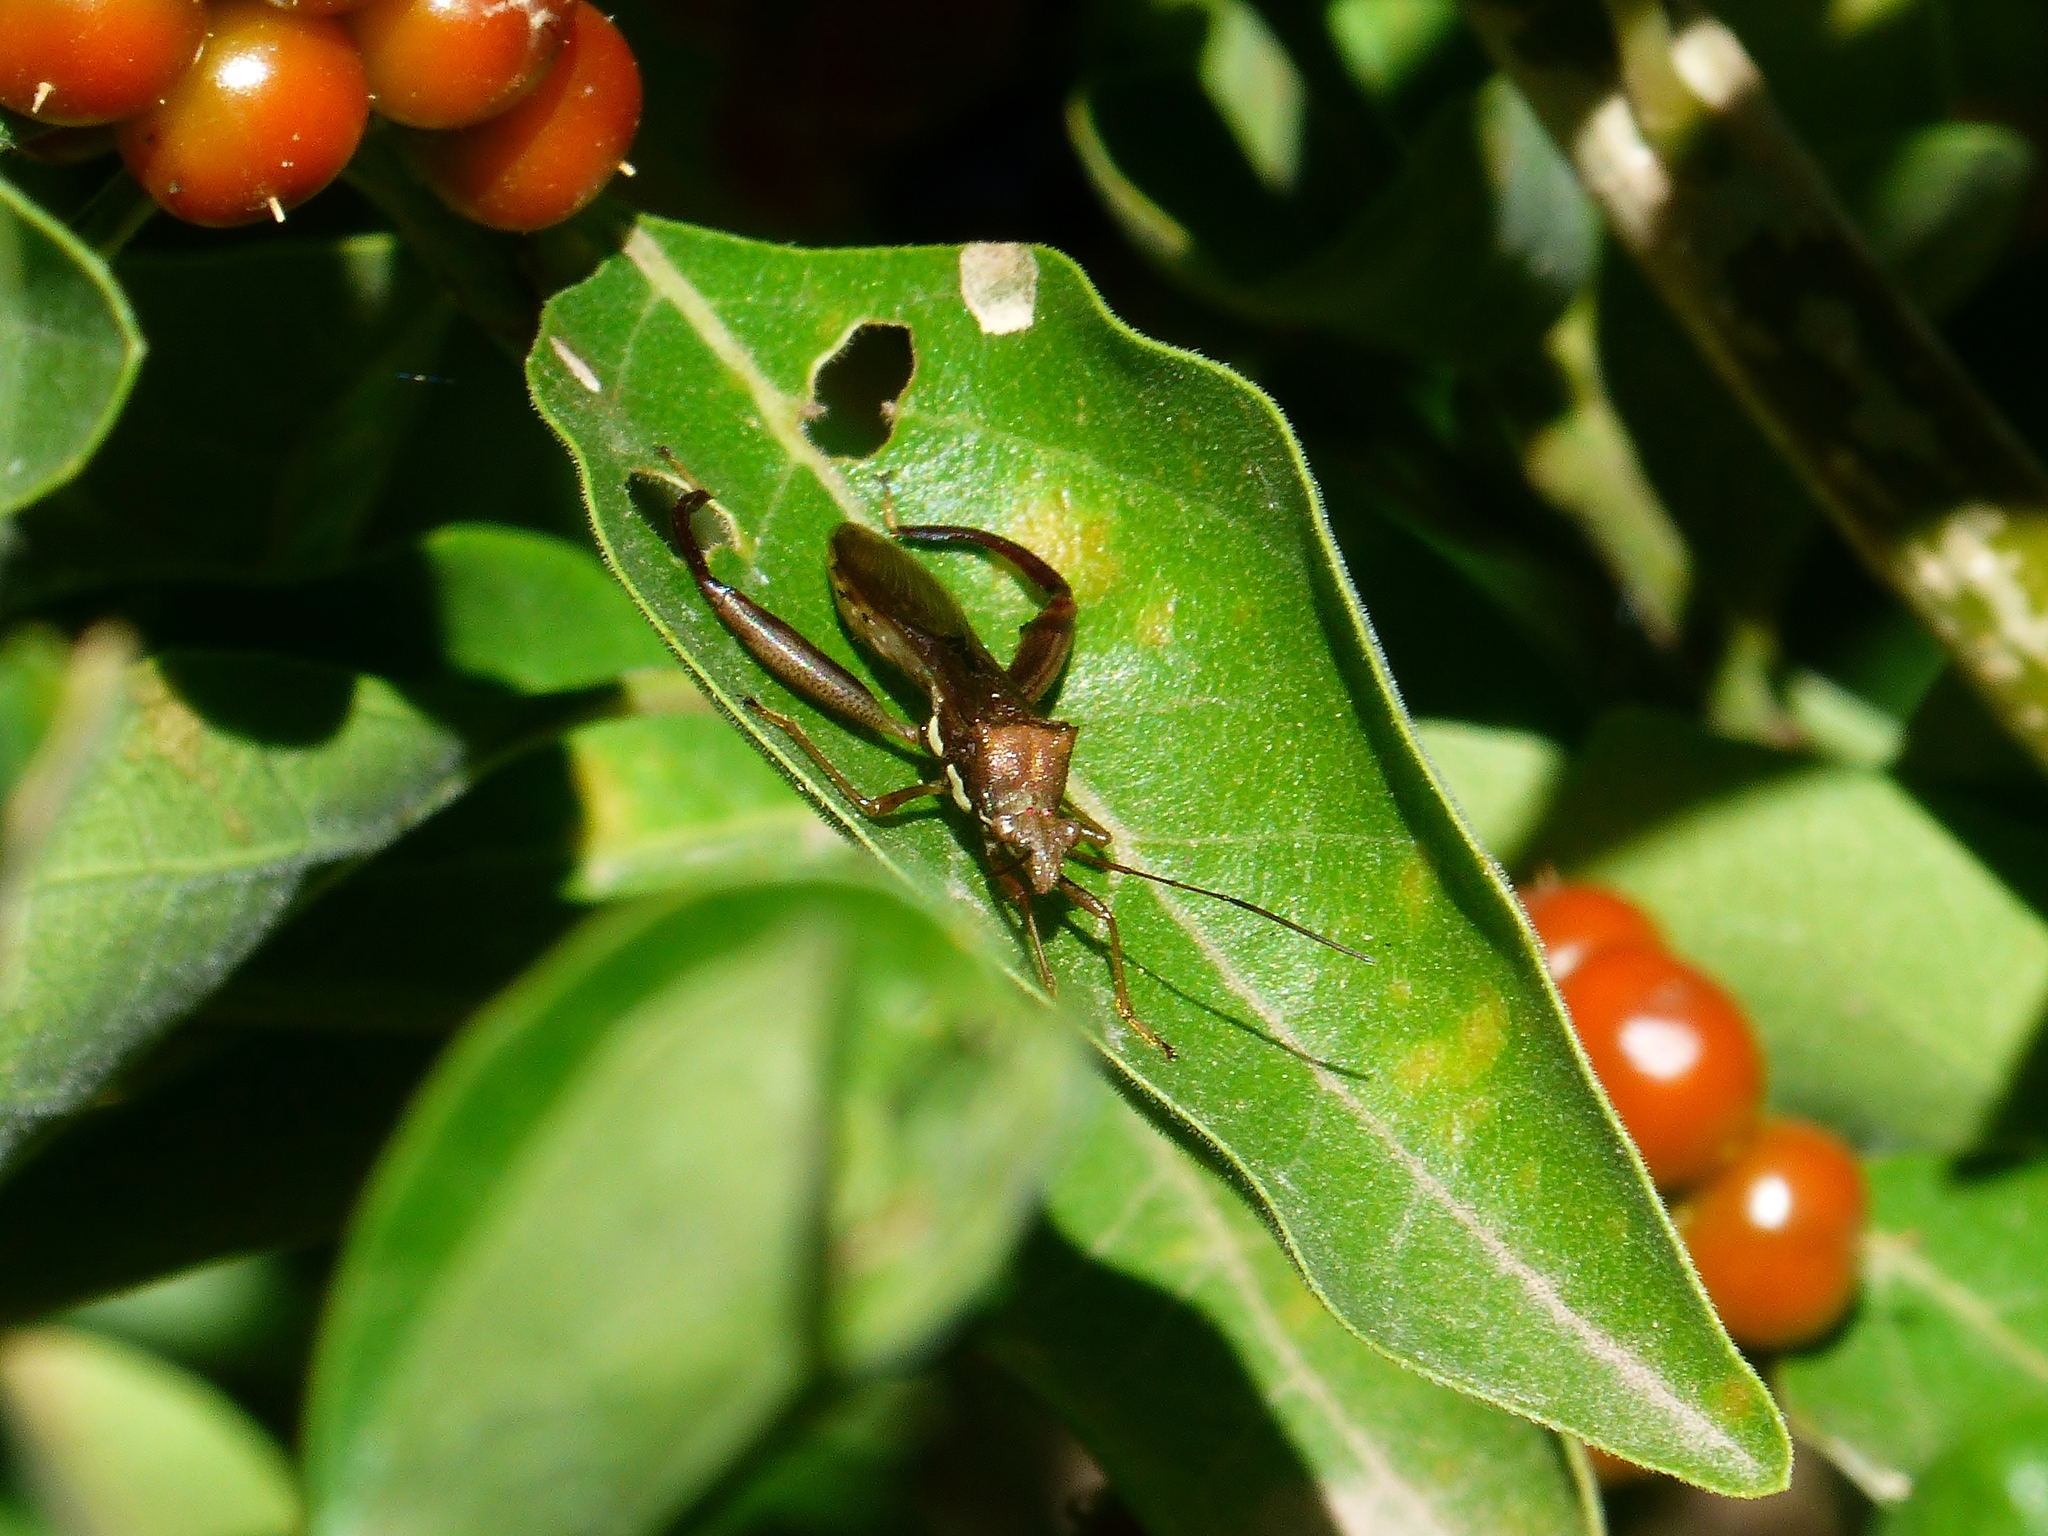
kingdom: Animalia
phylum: Arthropoda
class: Insecta
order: Hemiptera
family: Alydidae
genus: Hyalymenus
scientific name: Hyalymenus tarsatus
